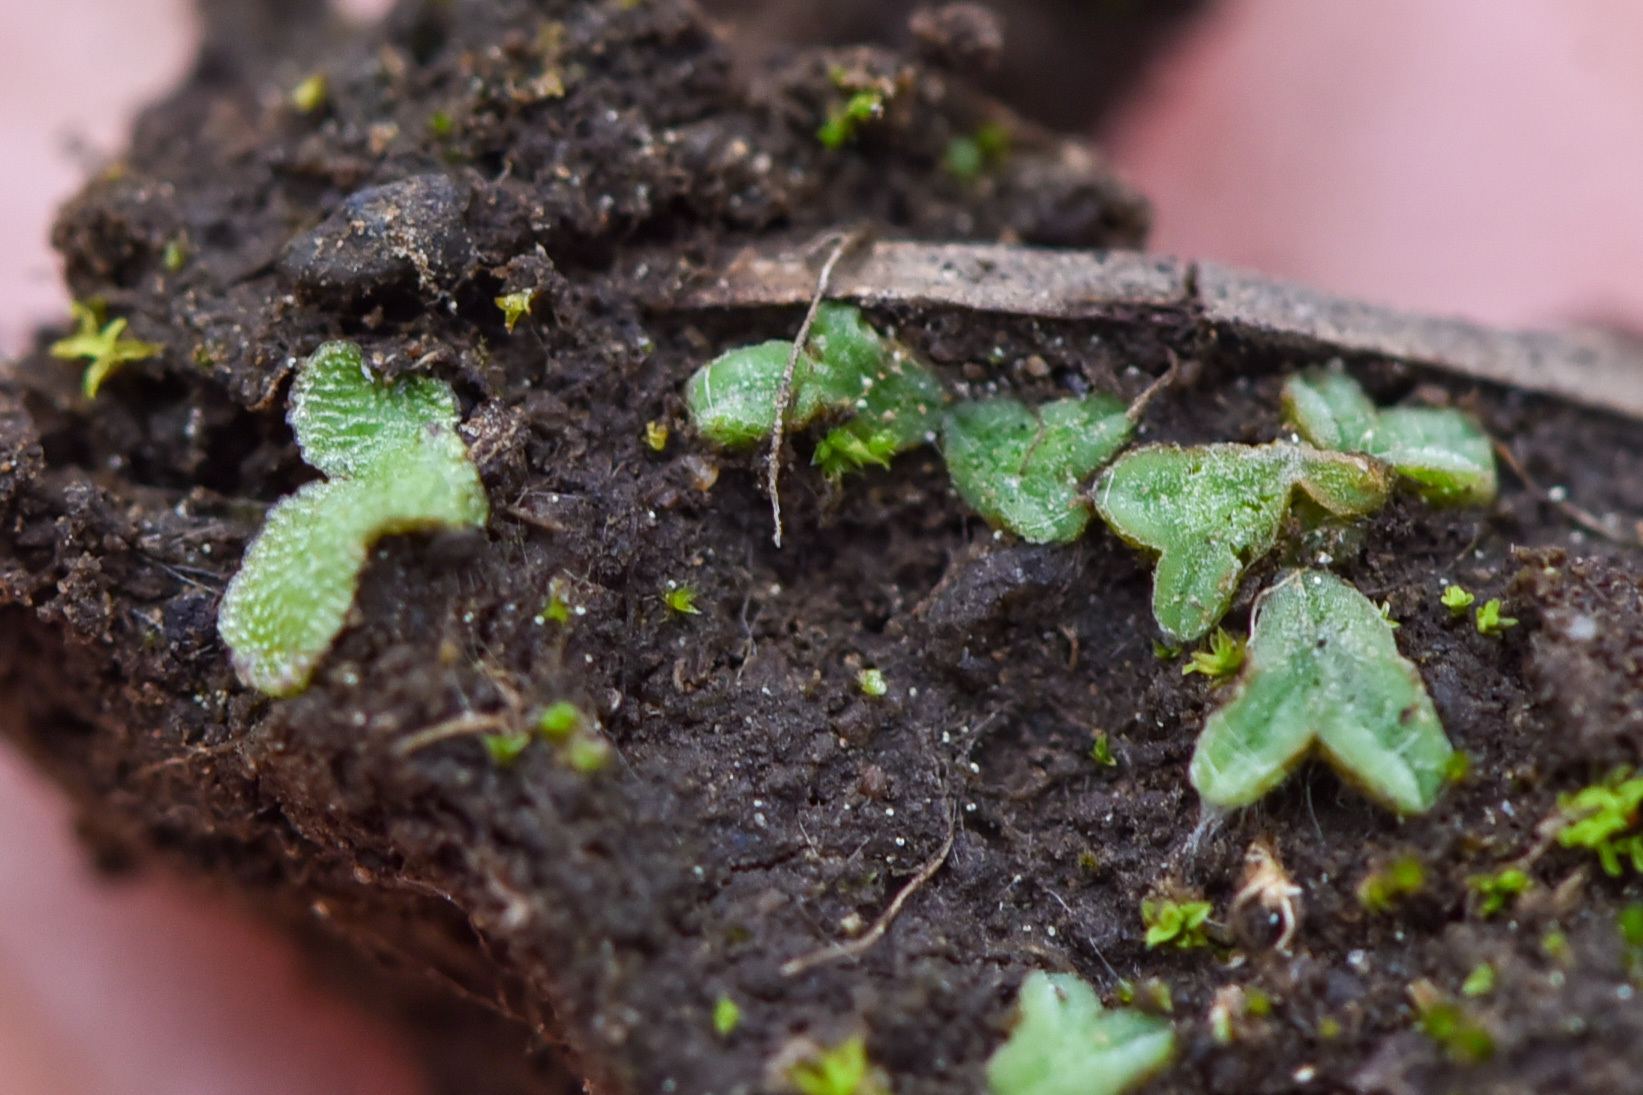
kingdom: Plantae
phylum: Marchantiophyta
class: Marchantiopsida
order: Marchantiales
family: Ricciaceae
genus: Riccia
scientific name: Riccia sorocarpa
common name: Common crystalwort
